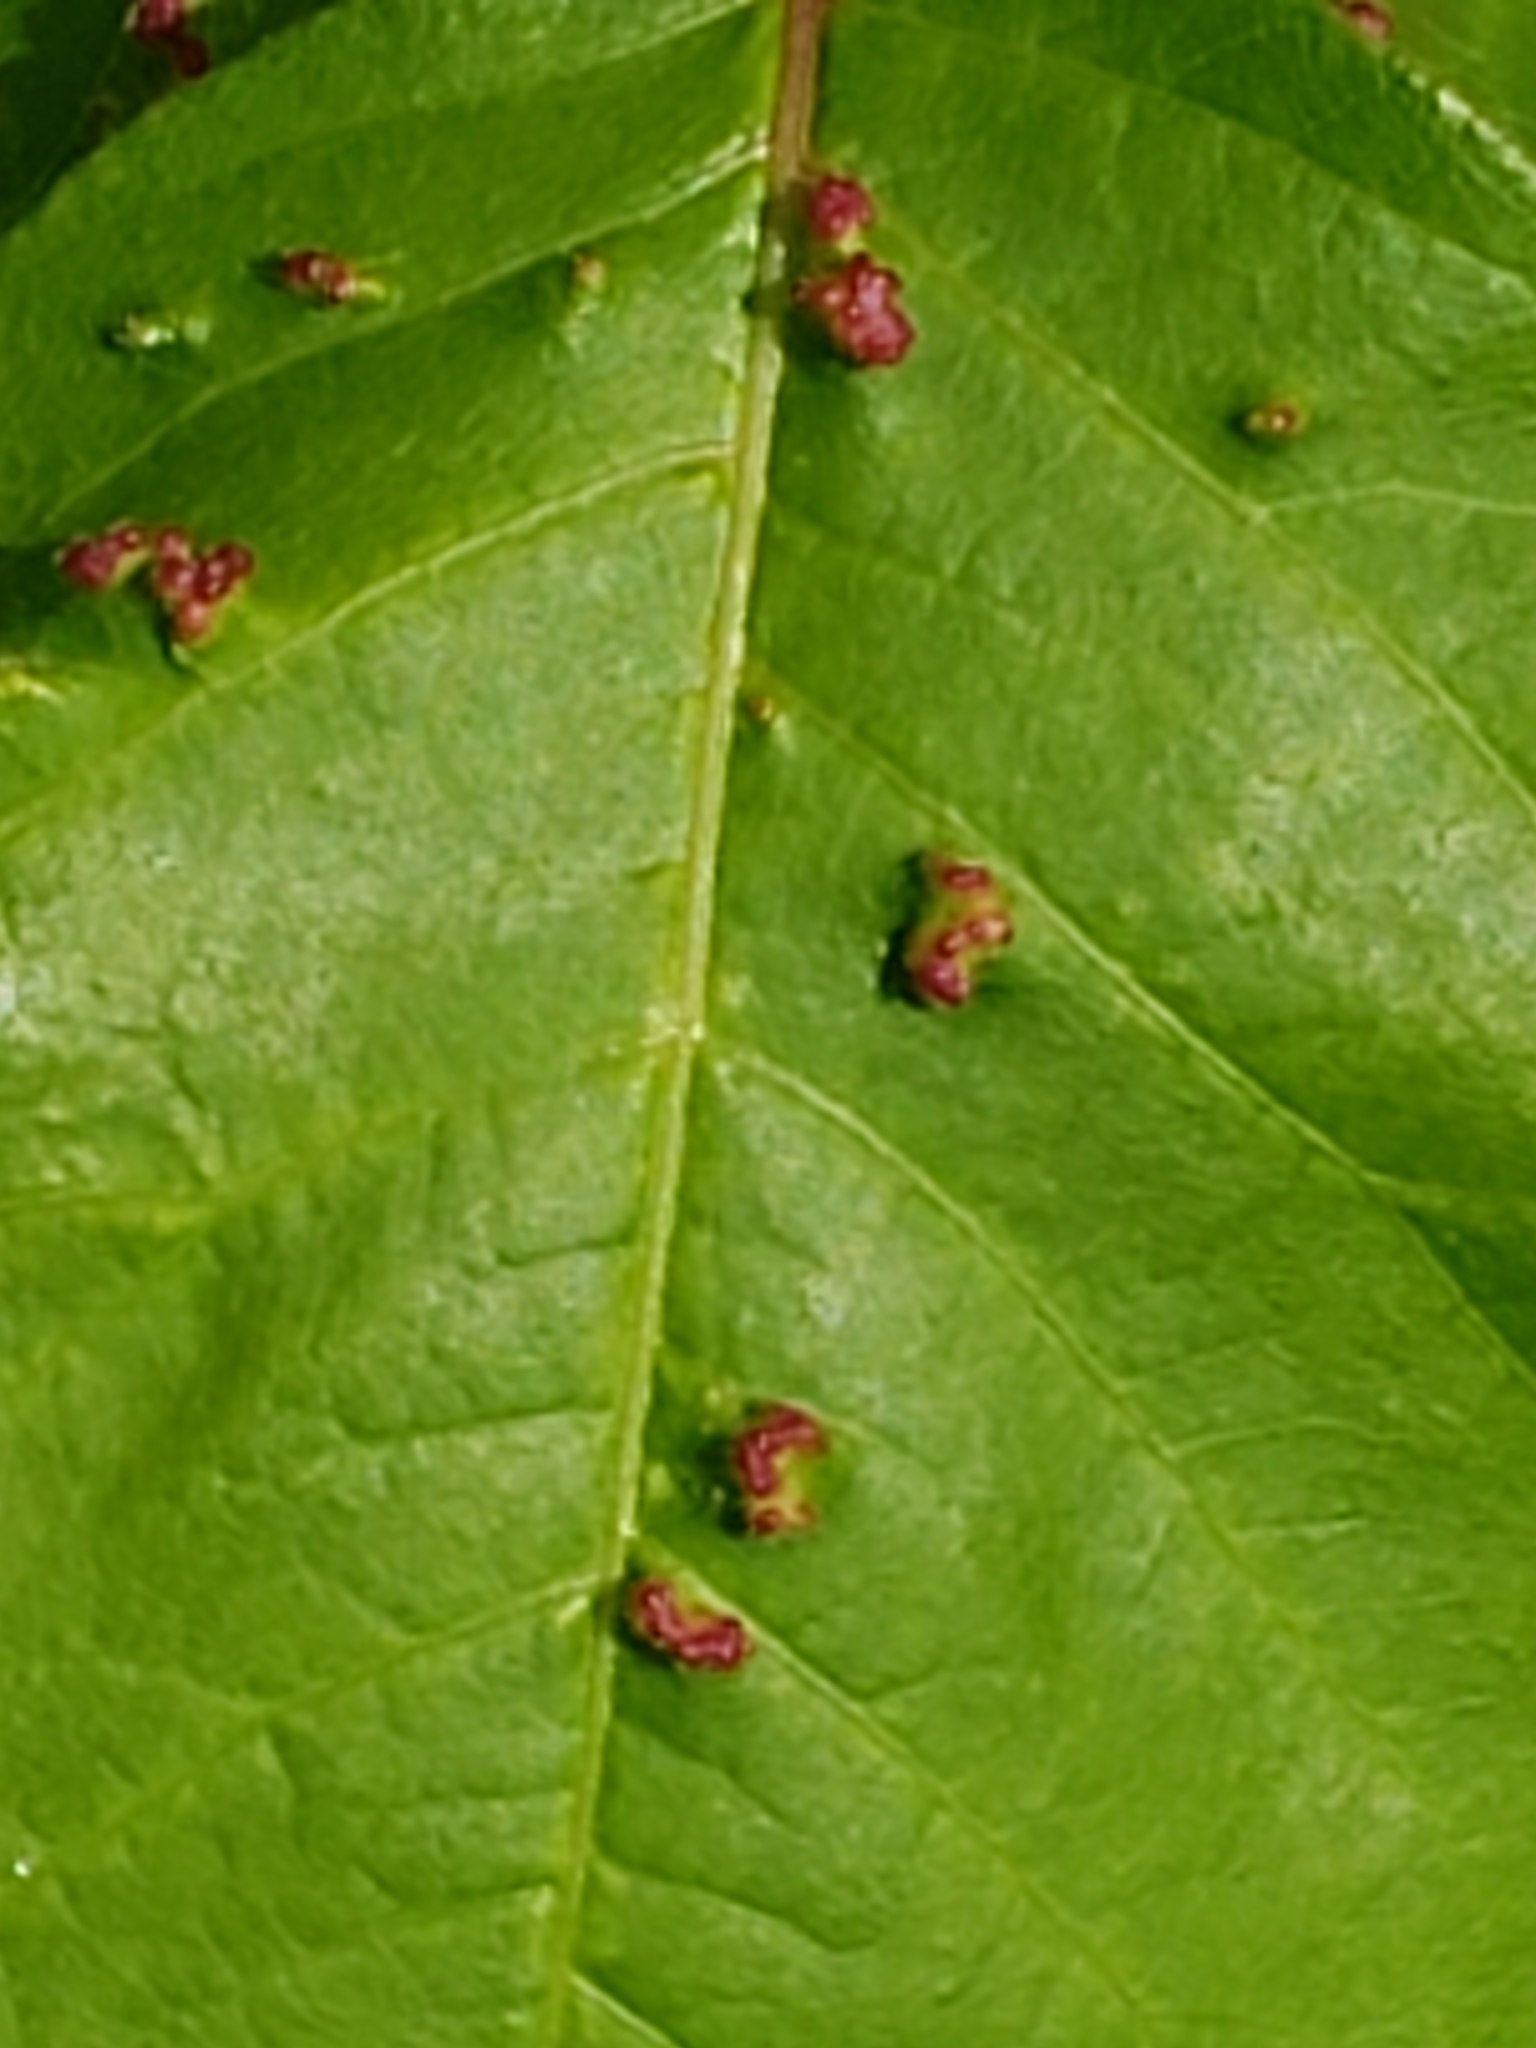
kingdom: Animalia
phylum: Arthropoda
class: Arachnida
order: Trombidiformes
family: Eriophyidae
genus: Aculops
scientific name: Aculops
